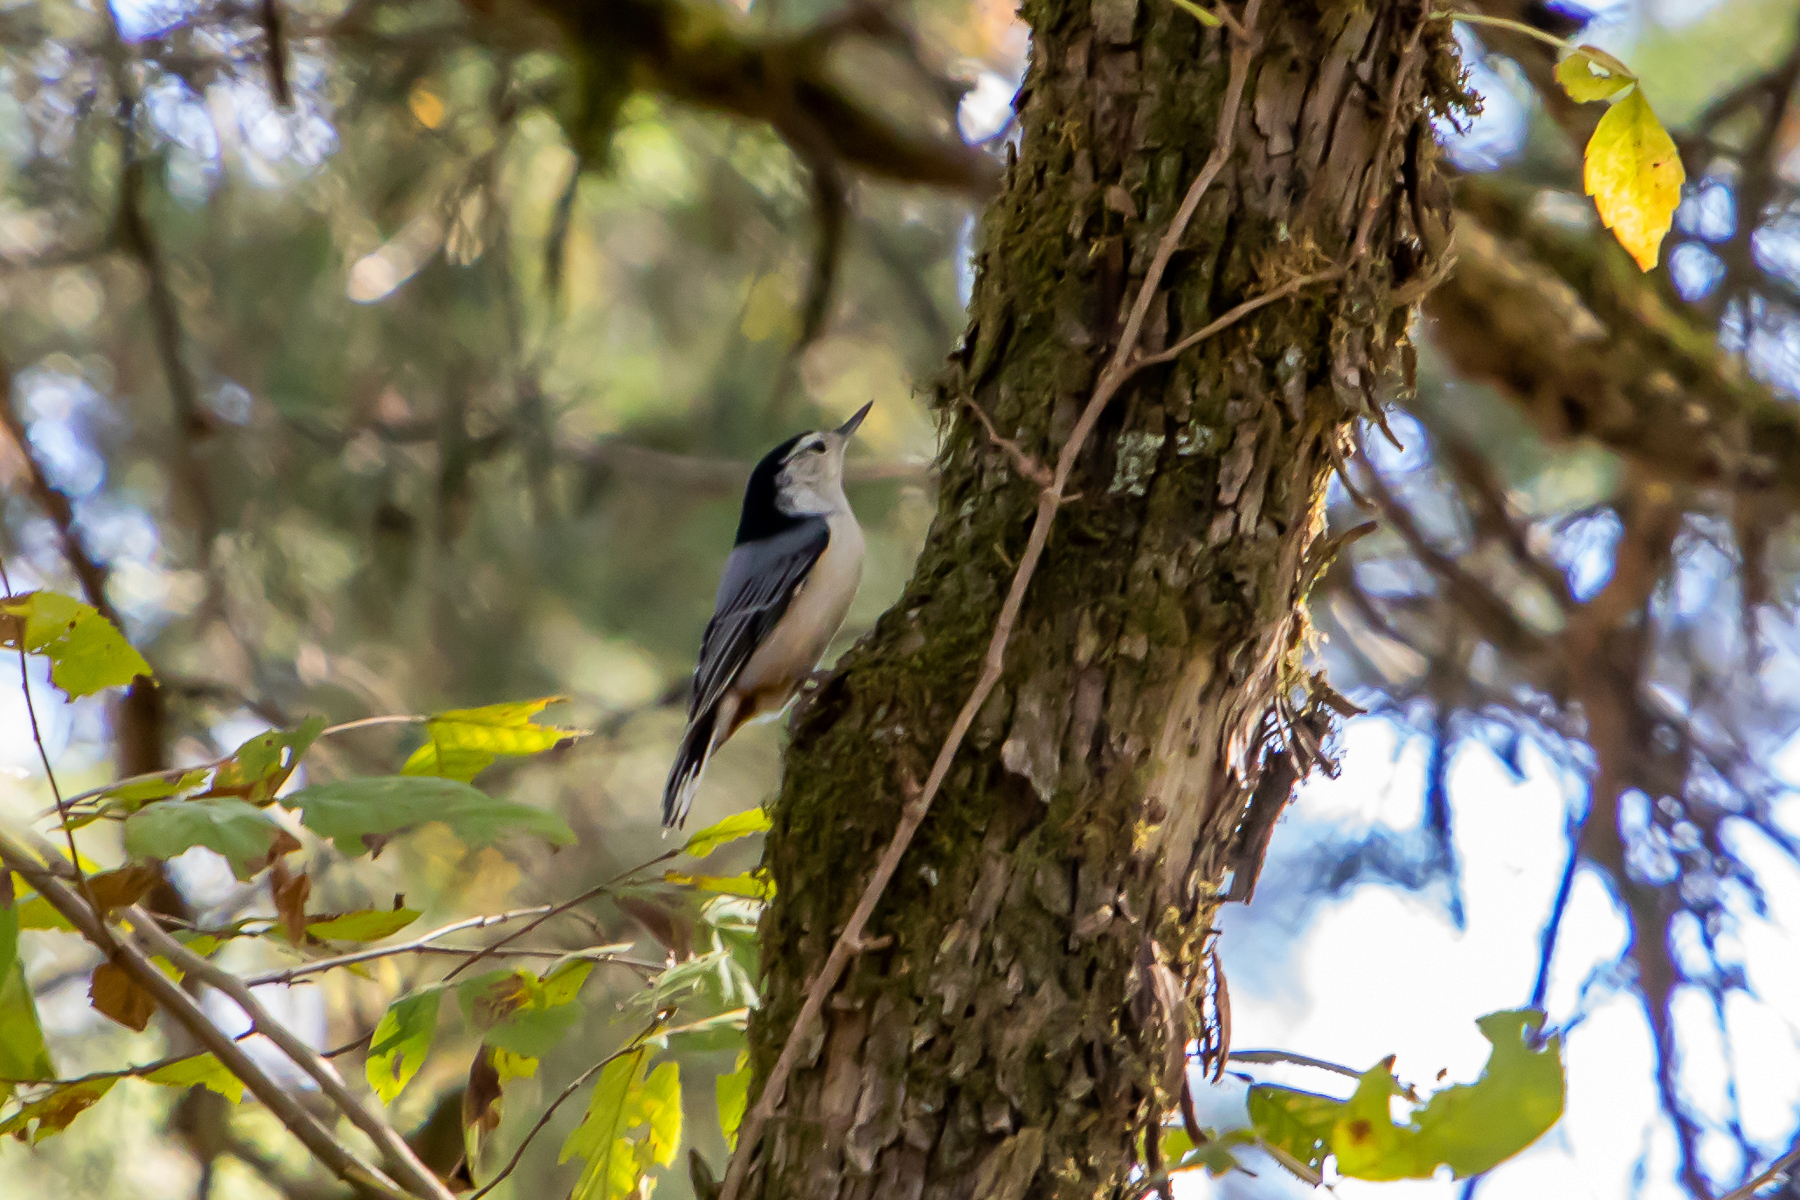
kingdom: Animalia
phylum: Chordata
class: Aves
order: Passeriformes
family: Sittidae
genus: Sitta
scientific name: Sitta carolinensis
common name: White-breasted nuthatch
